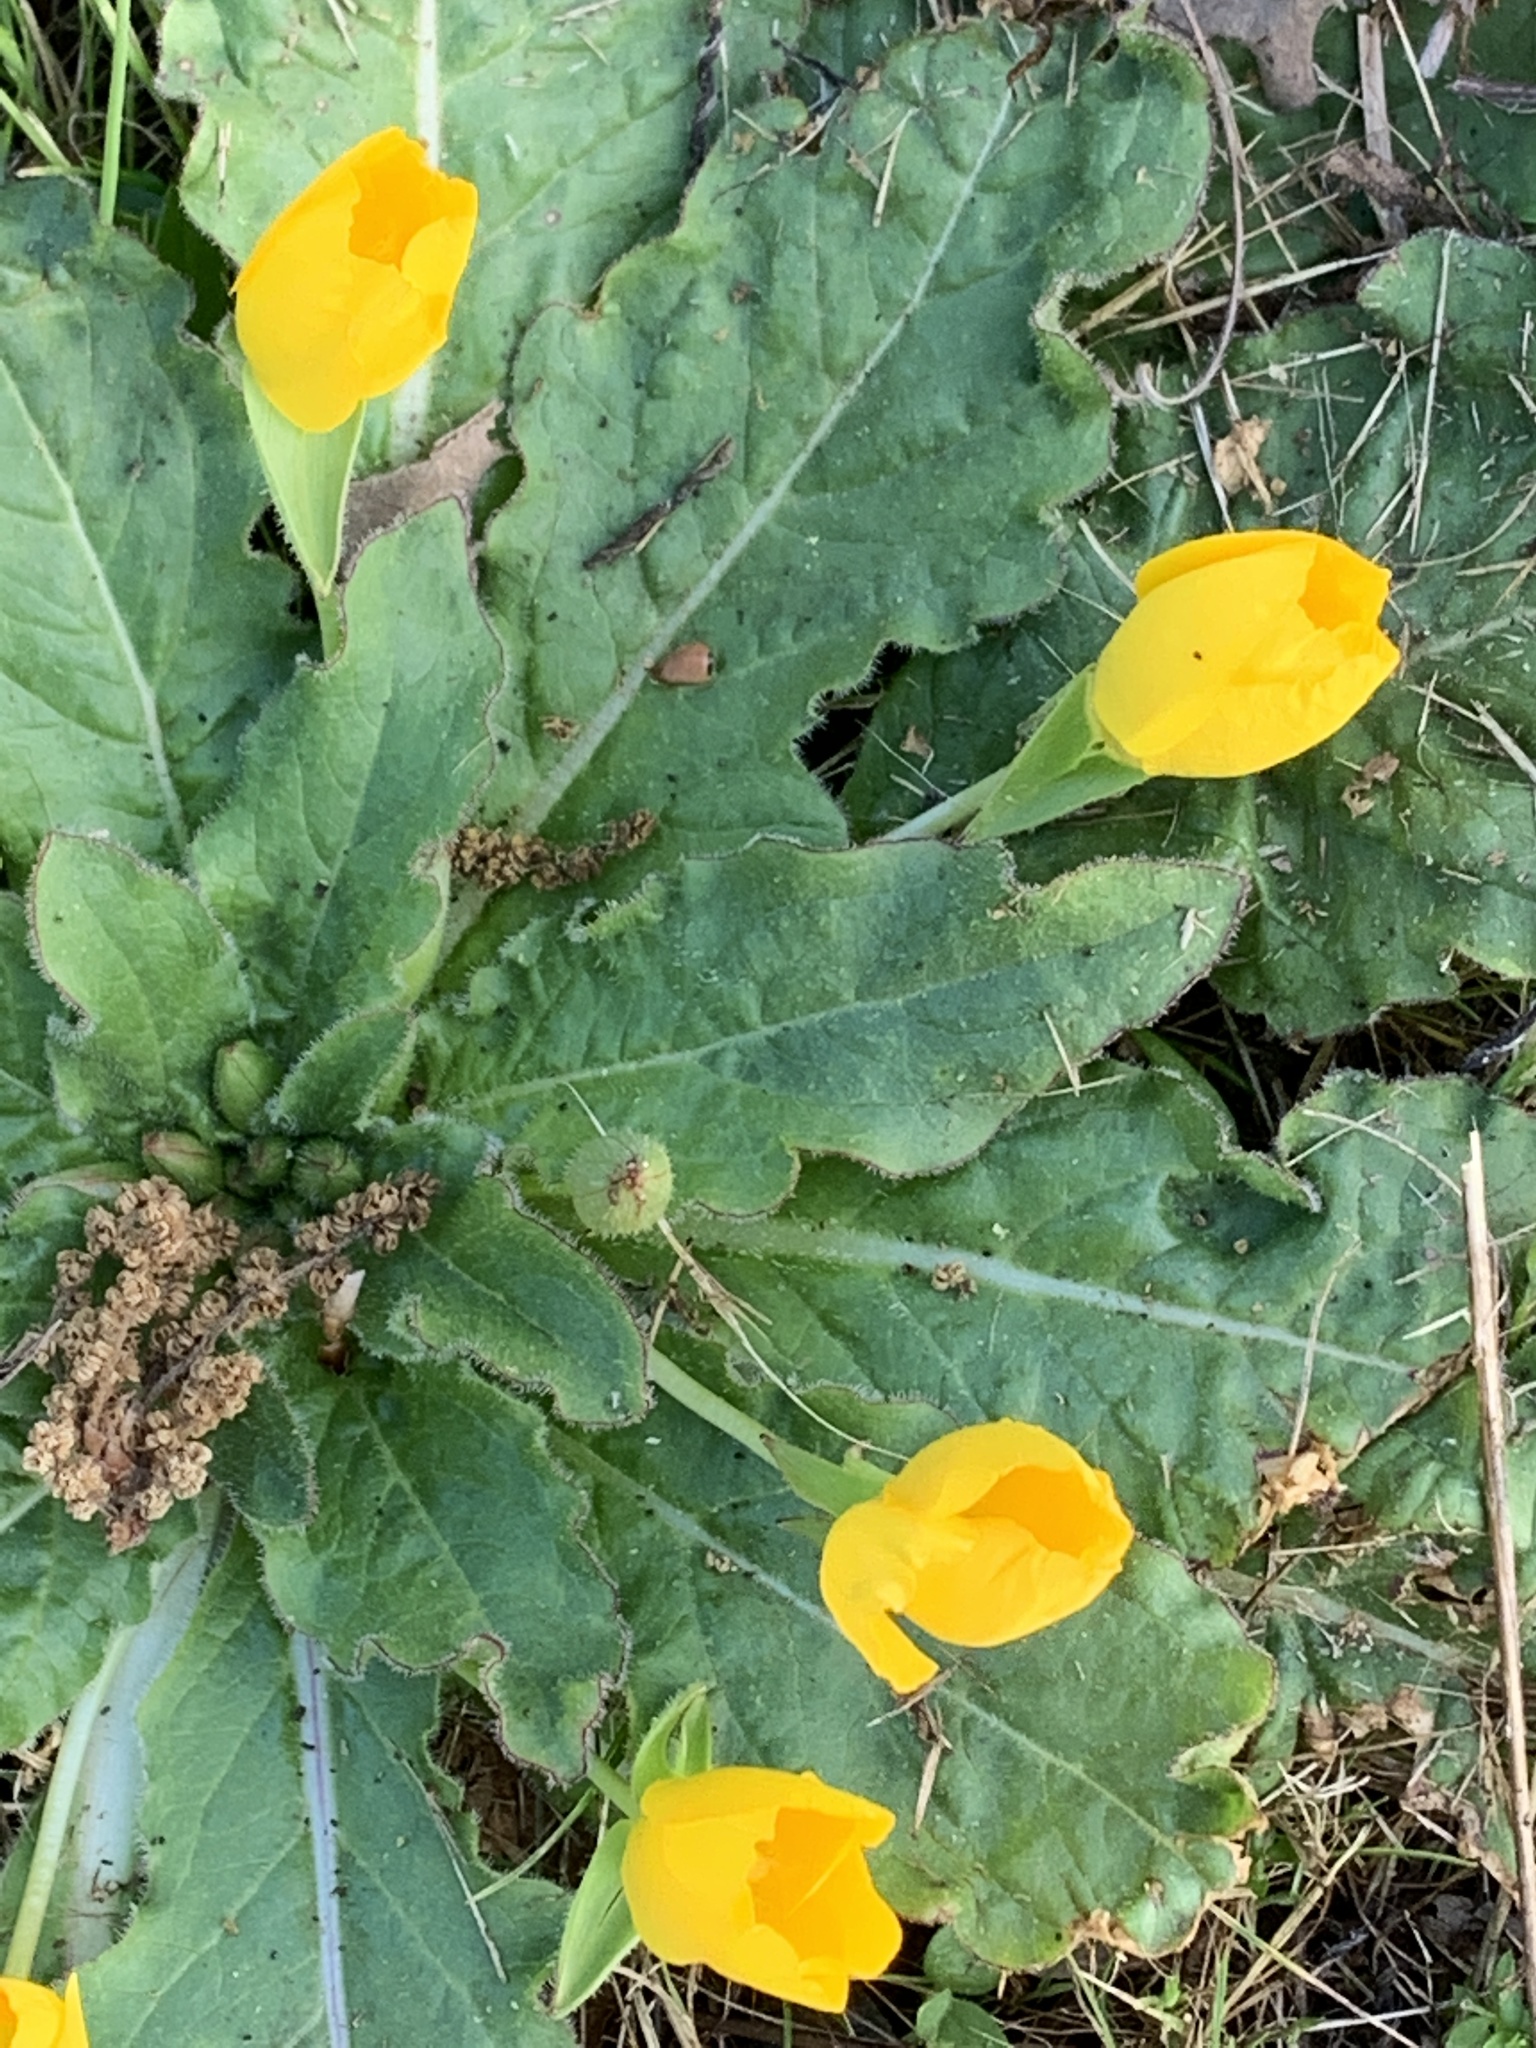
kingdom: Plantae
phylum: Tracheophyta
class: Magnoliopsida
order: Myrtales
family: Onagraceae
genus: Taraxia
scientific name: Taraxia ovata
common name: Goldeneggs
